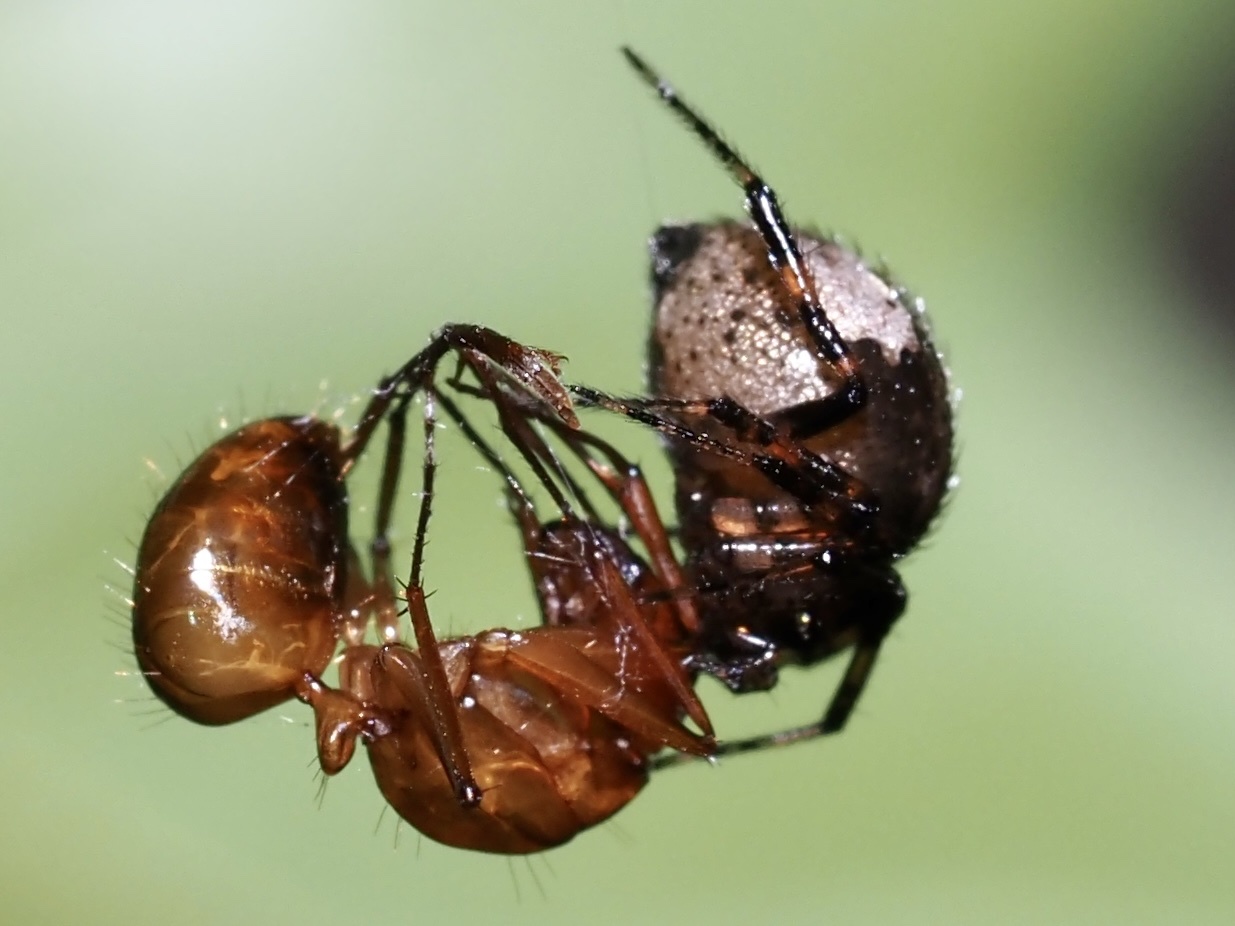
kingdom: Animalia
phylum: Arthropoda
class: Insecta
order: Hymenoptera
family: Formicidae
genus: Camponotus
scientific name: Camponotus castaneus
